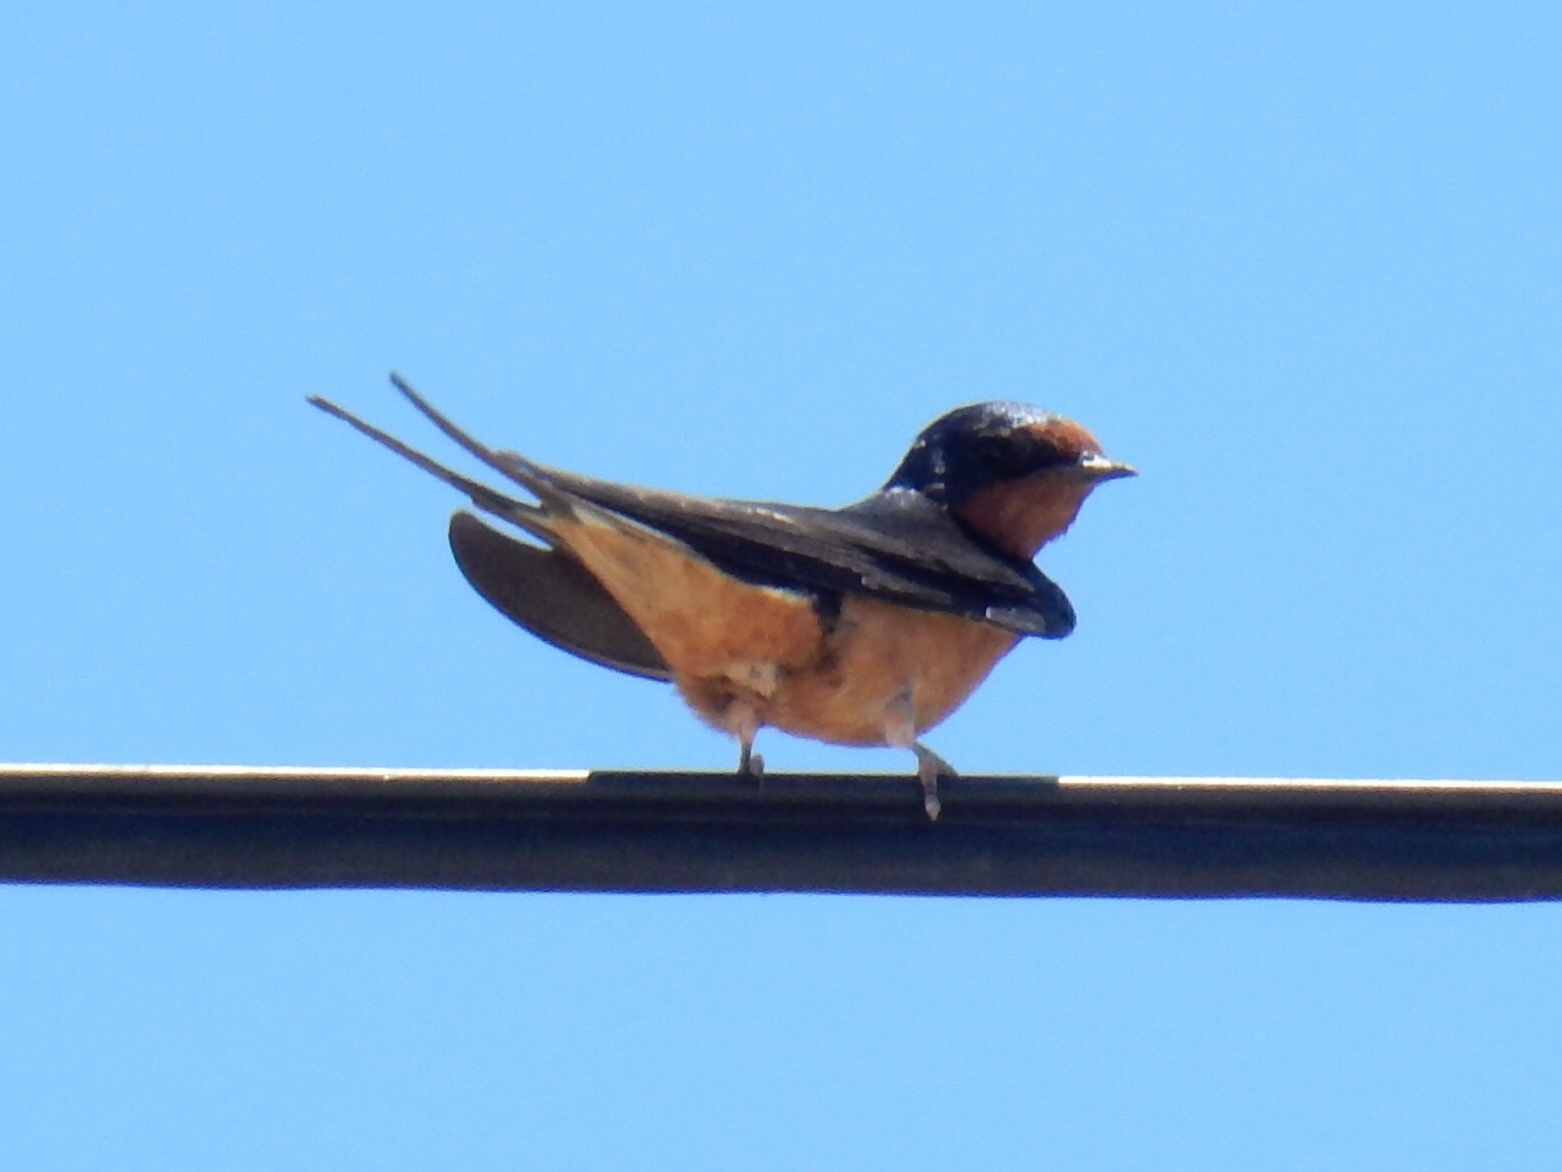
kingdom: Animalia
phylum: Chordata
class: Aves
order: Passeriformes
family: Hirundinidae
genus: Hirundo
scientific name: Hirundo rustica
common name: Barn swallow
